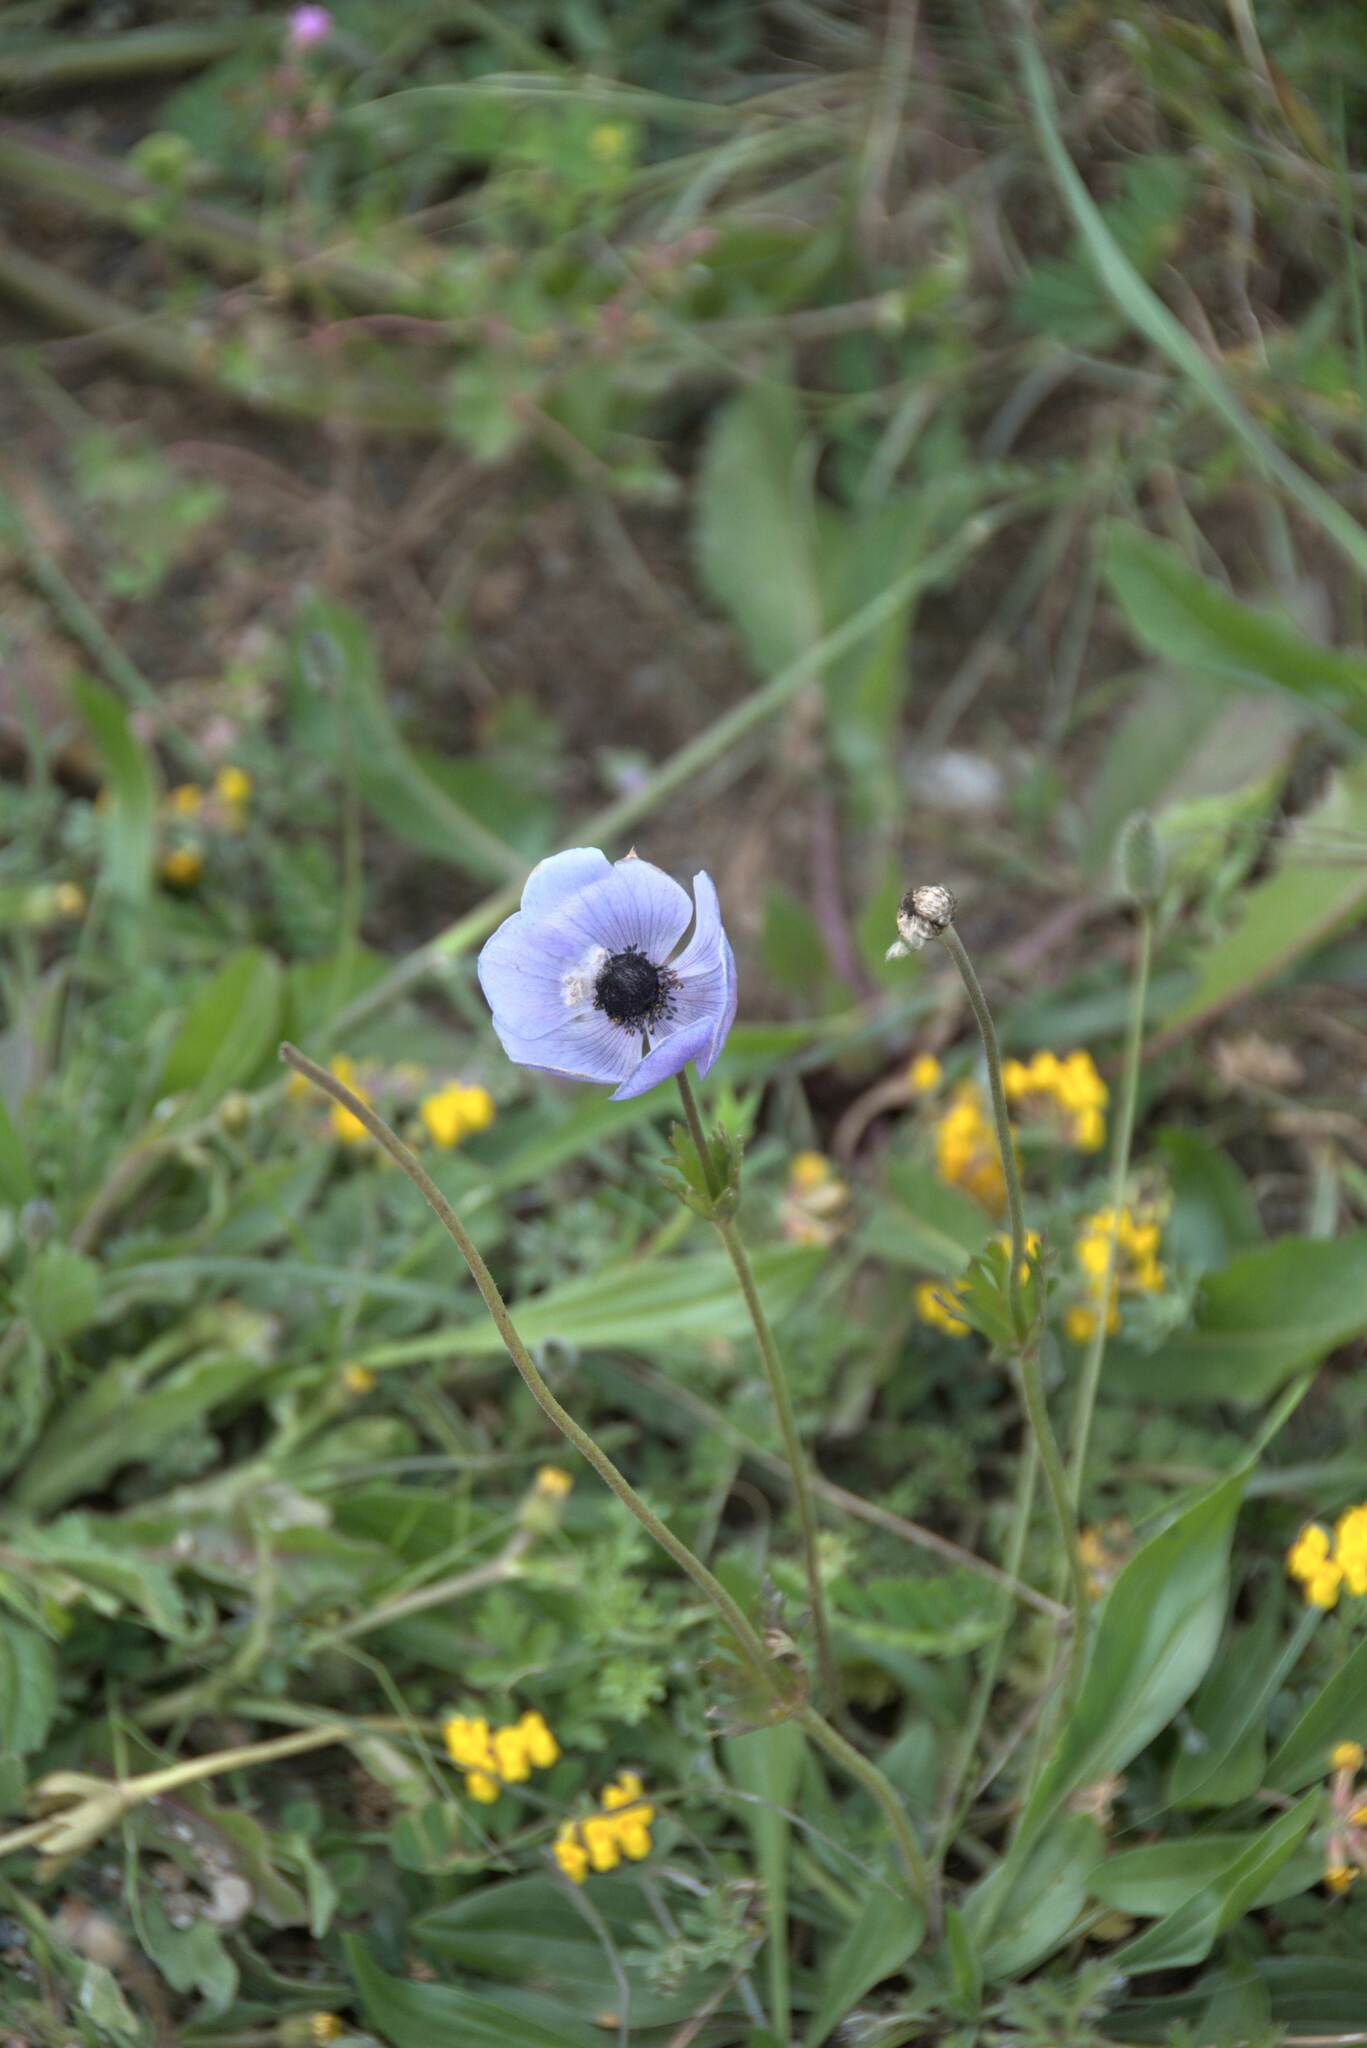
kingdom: Plantae
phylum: Tracheophyta
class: Magnoliopsida
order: Ranunculales
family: Ranunculaceae
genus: Anemone
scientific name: Anemone coronaria
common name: Poppy anemone
